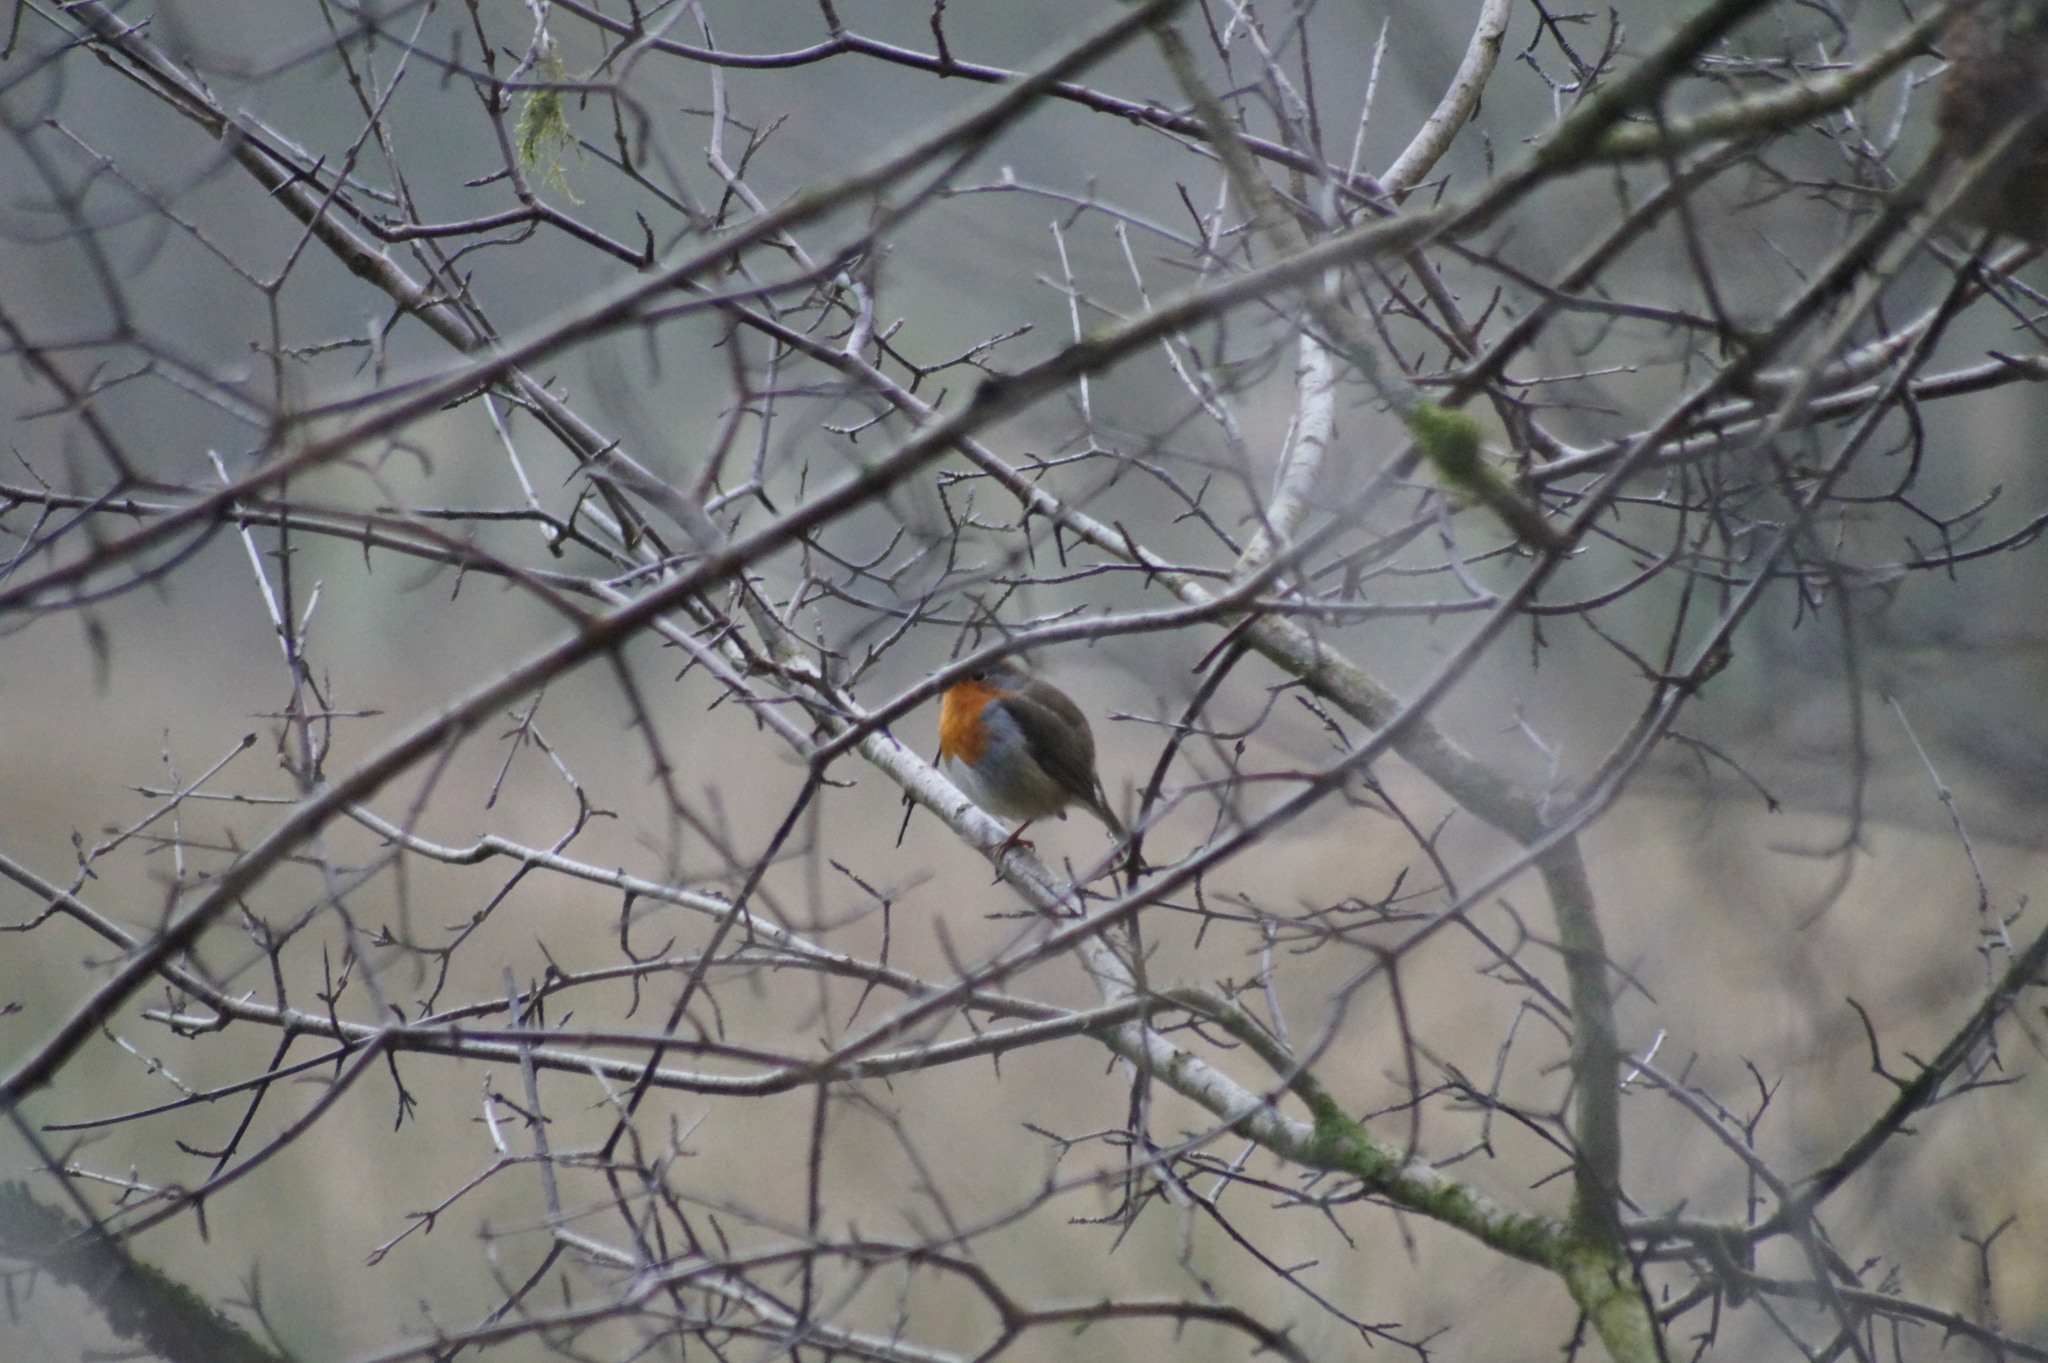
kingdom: Animalia
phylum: Chordata
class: Aves
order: Passeriformes
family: Muscicapidae
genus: Erithacus
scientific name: Erithacus rubecula
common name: European robin
